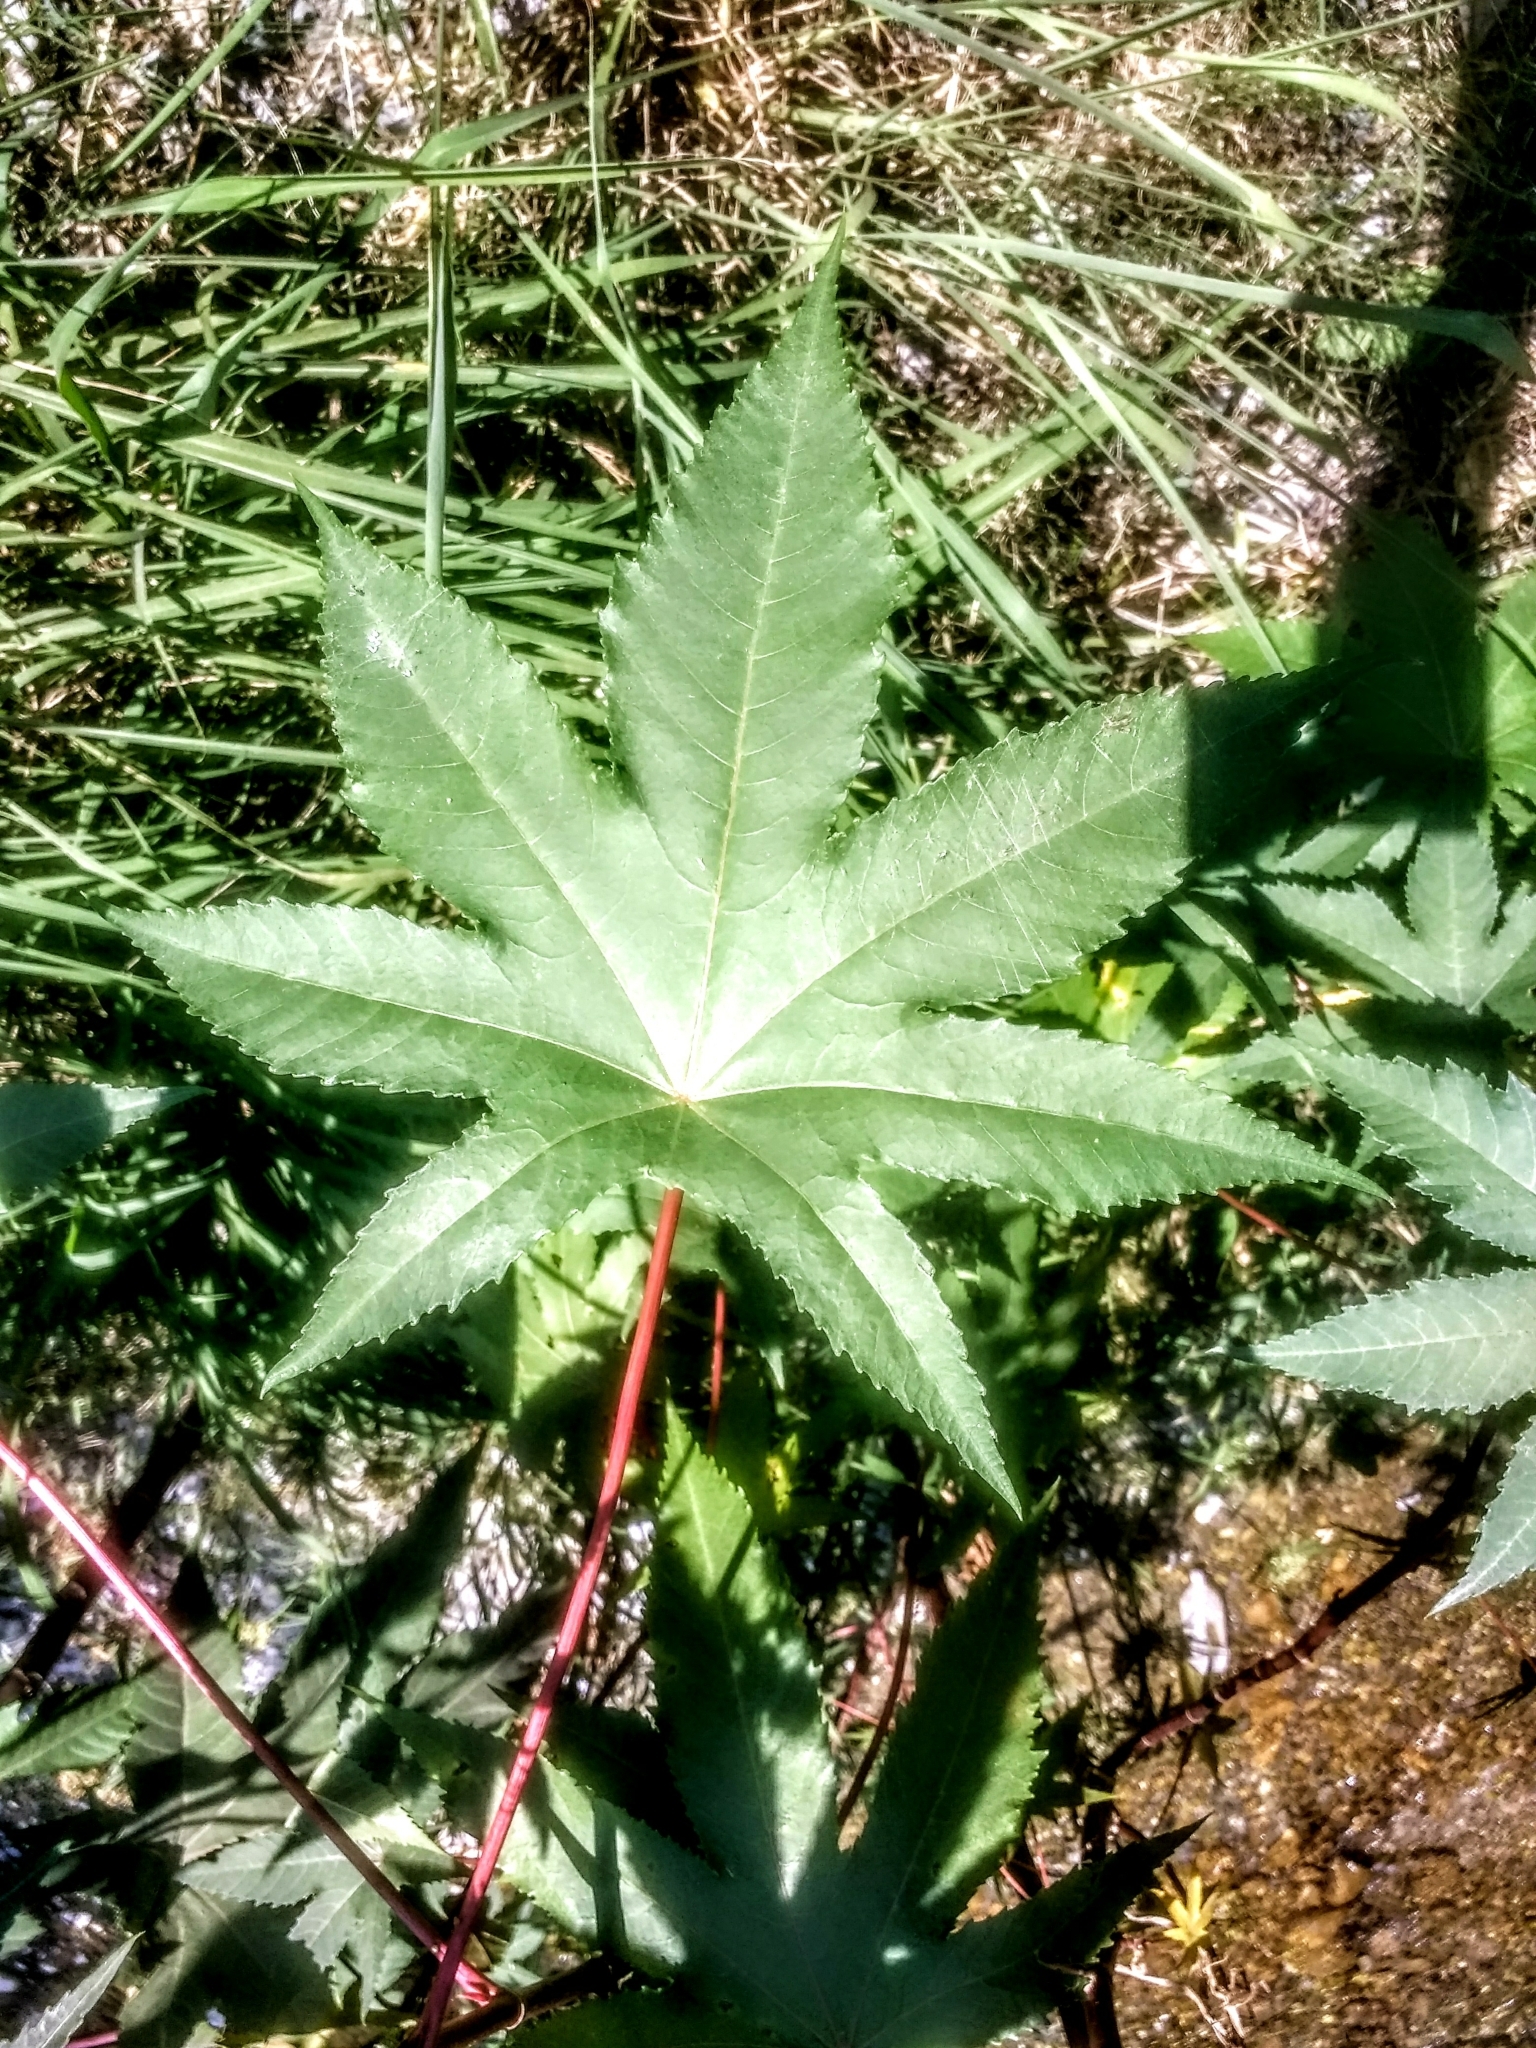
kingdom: Plantae
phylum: Tracheophyta
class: Magnoliopsida
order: Malpighiales
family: Euphorbiaceae
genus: Ricinus
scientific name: Ricinus communis
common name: Castor-oil-plant
